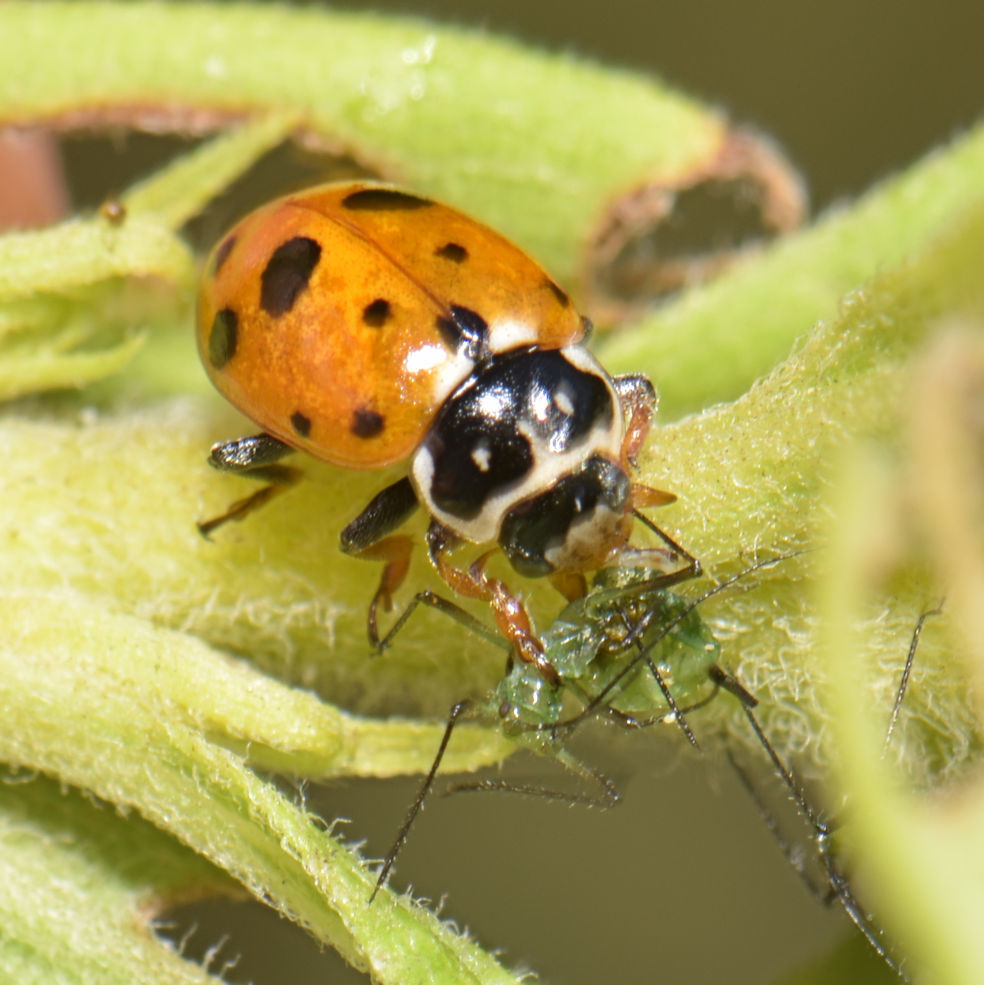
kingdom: Animalia
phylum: Arthropoda
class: Insecta
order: Coleoptera
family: Coccinellidae
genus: Hippodamia
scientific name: Hippodamia variegata
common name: Ladybird beetle
